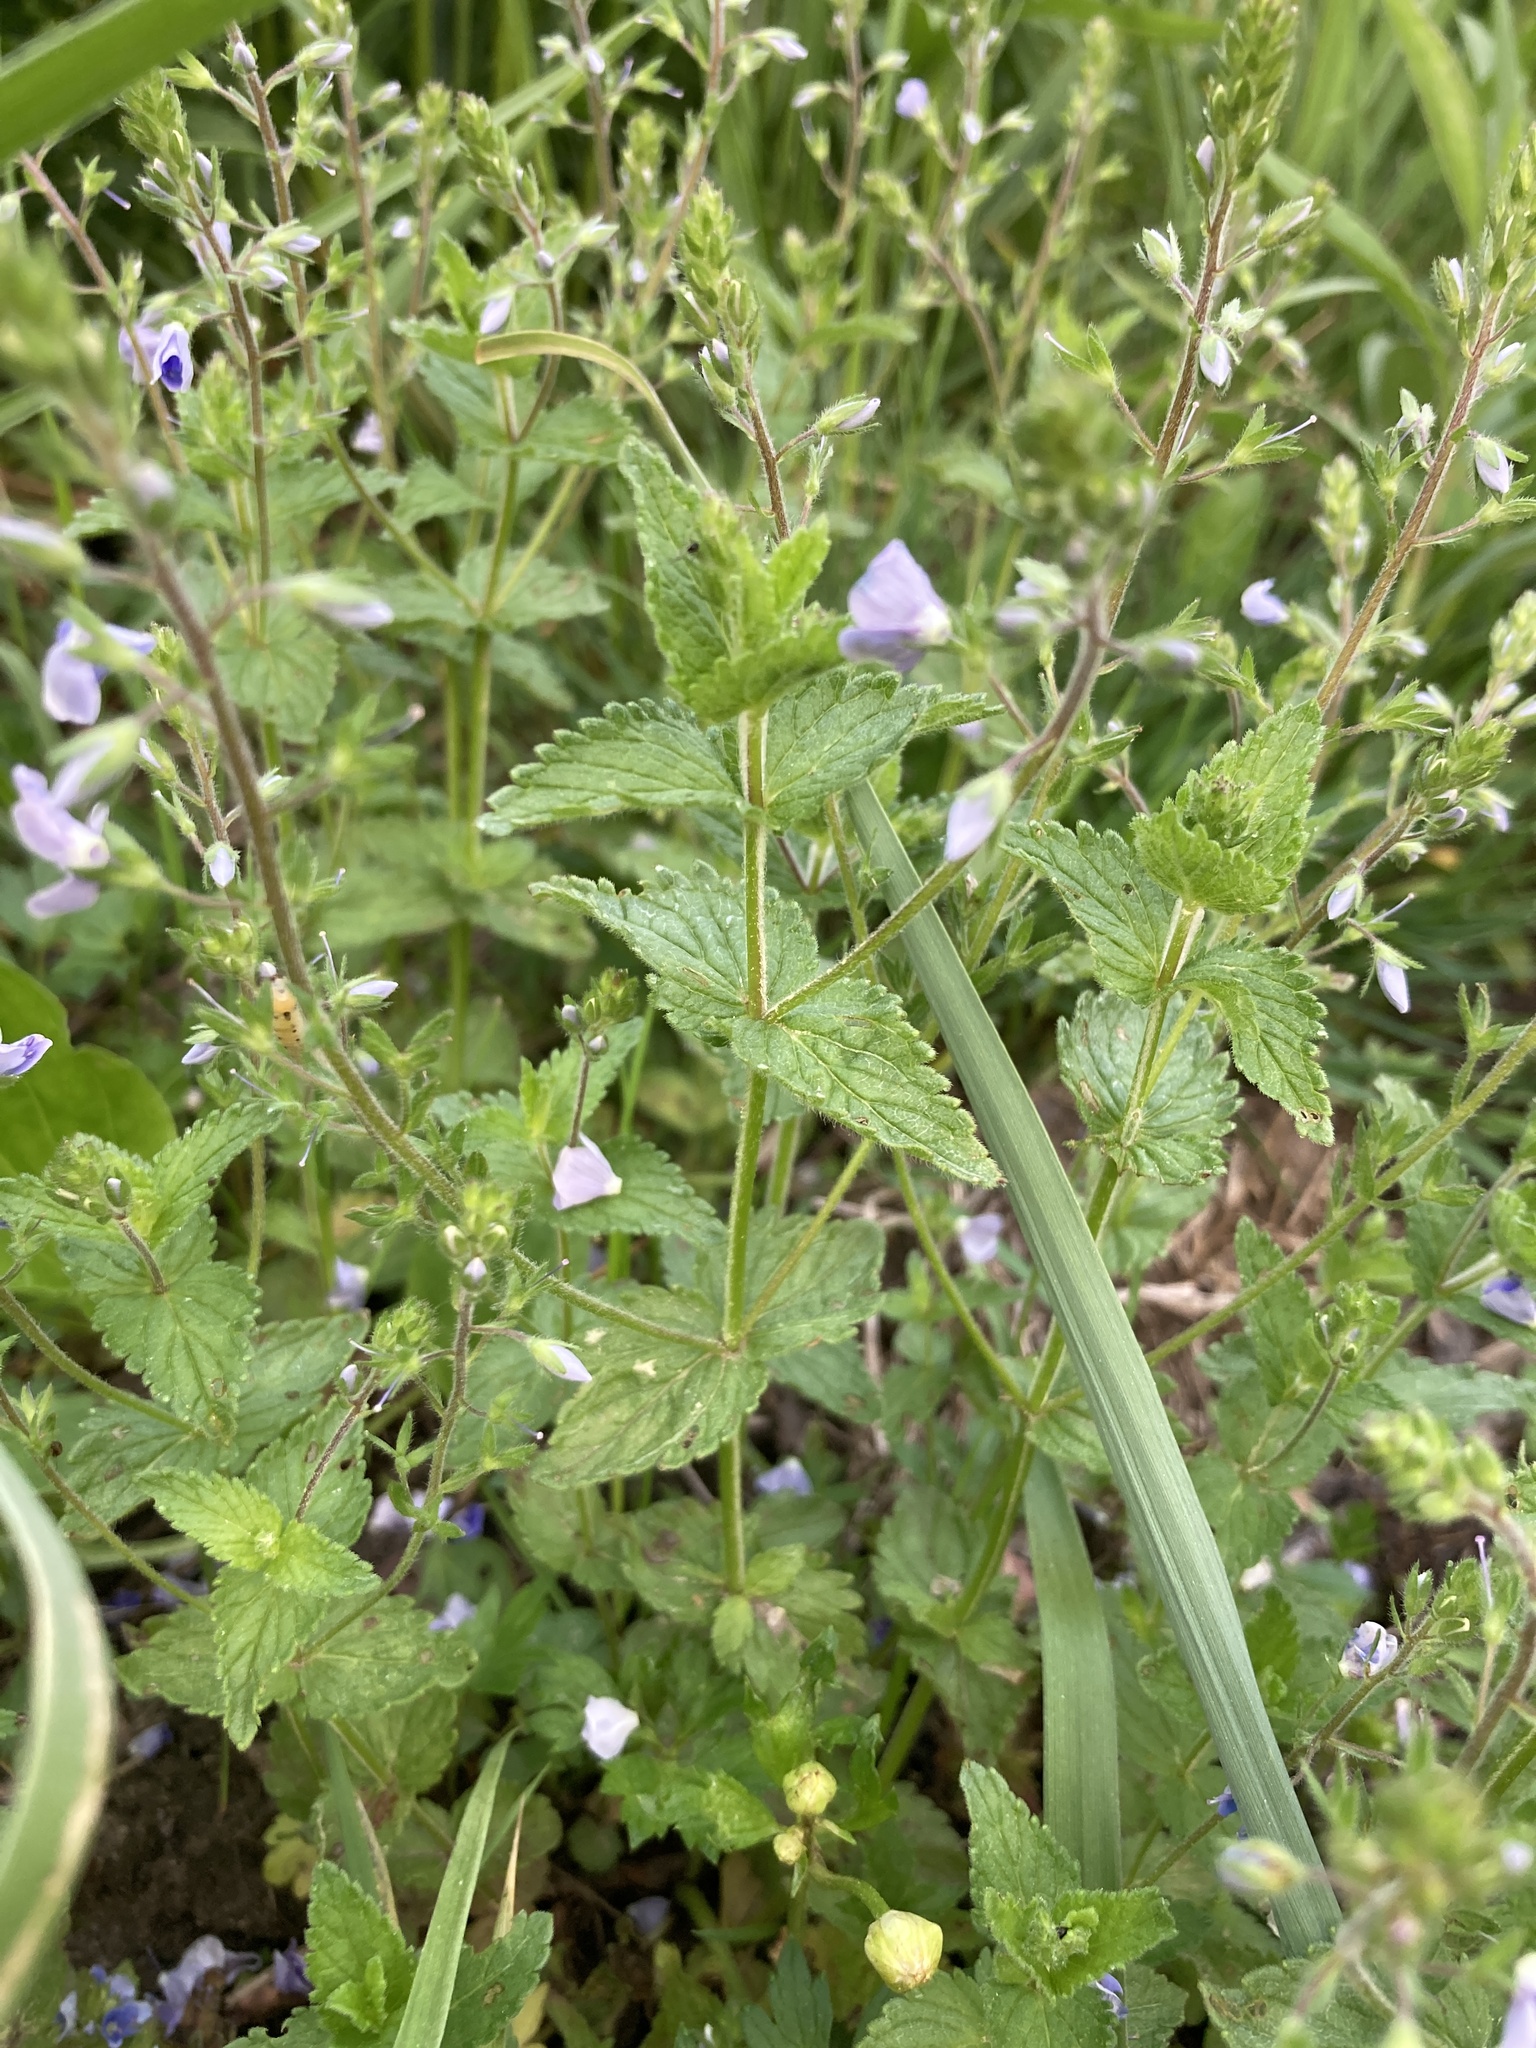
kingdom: Plantae
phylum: Tracheophyta
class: Magnoliopsida
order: Lamiales
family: Plantaginaceae
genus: Veronica
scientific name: Veronica chamaedrys
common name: Germander speedwell
